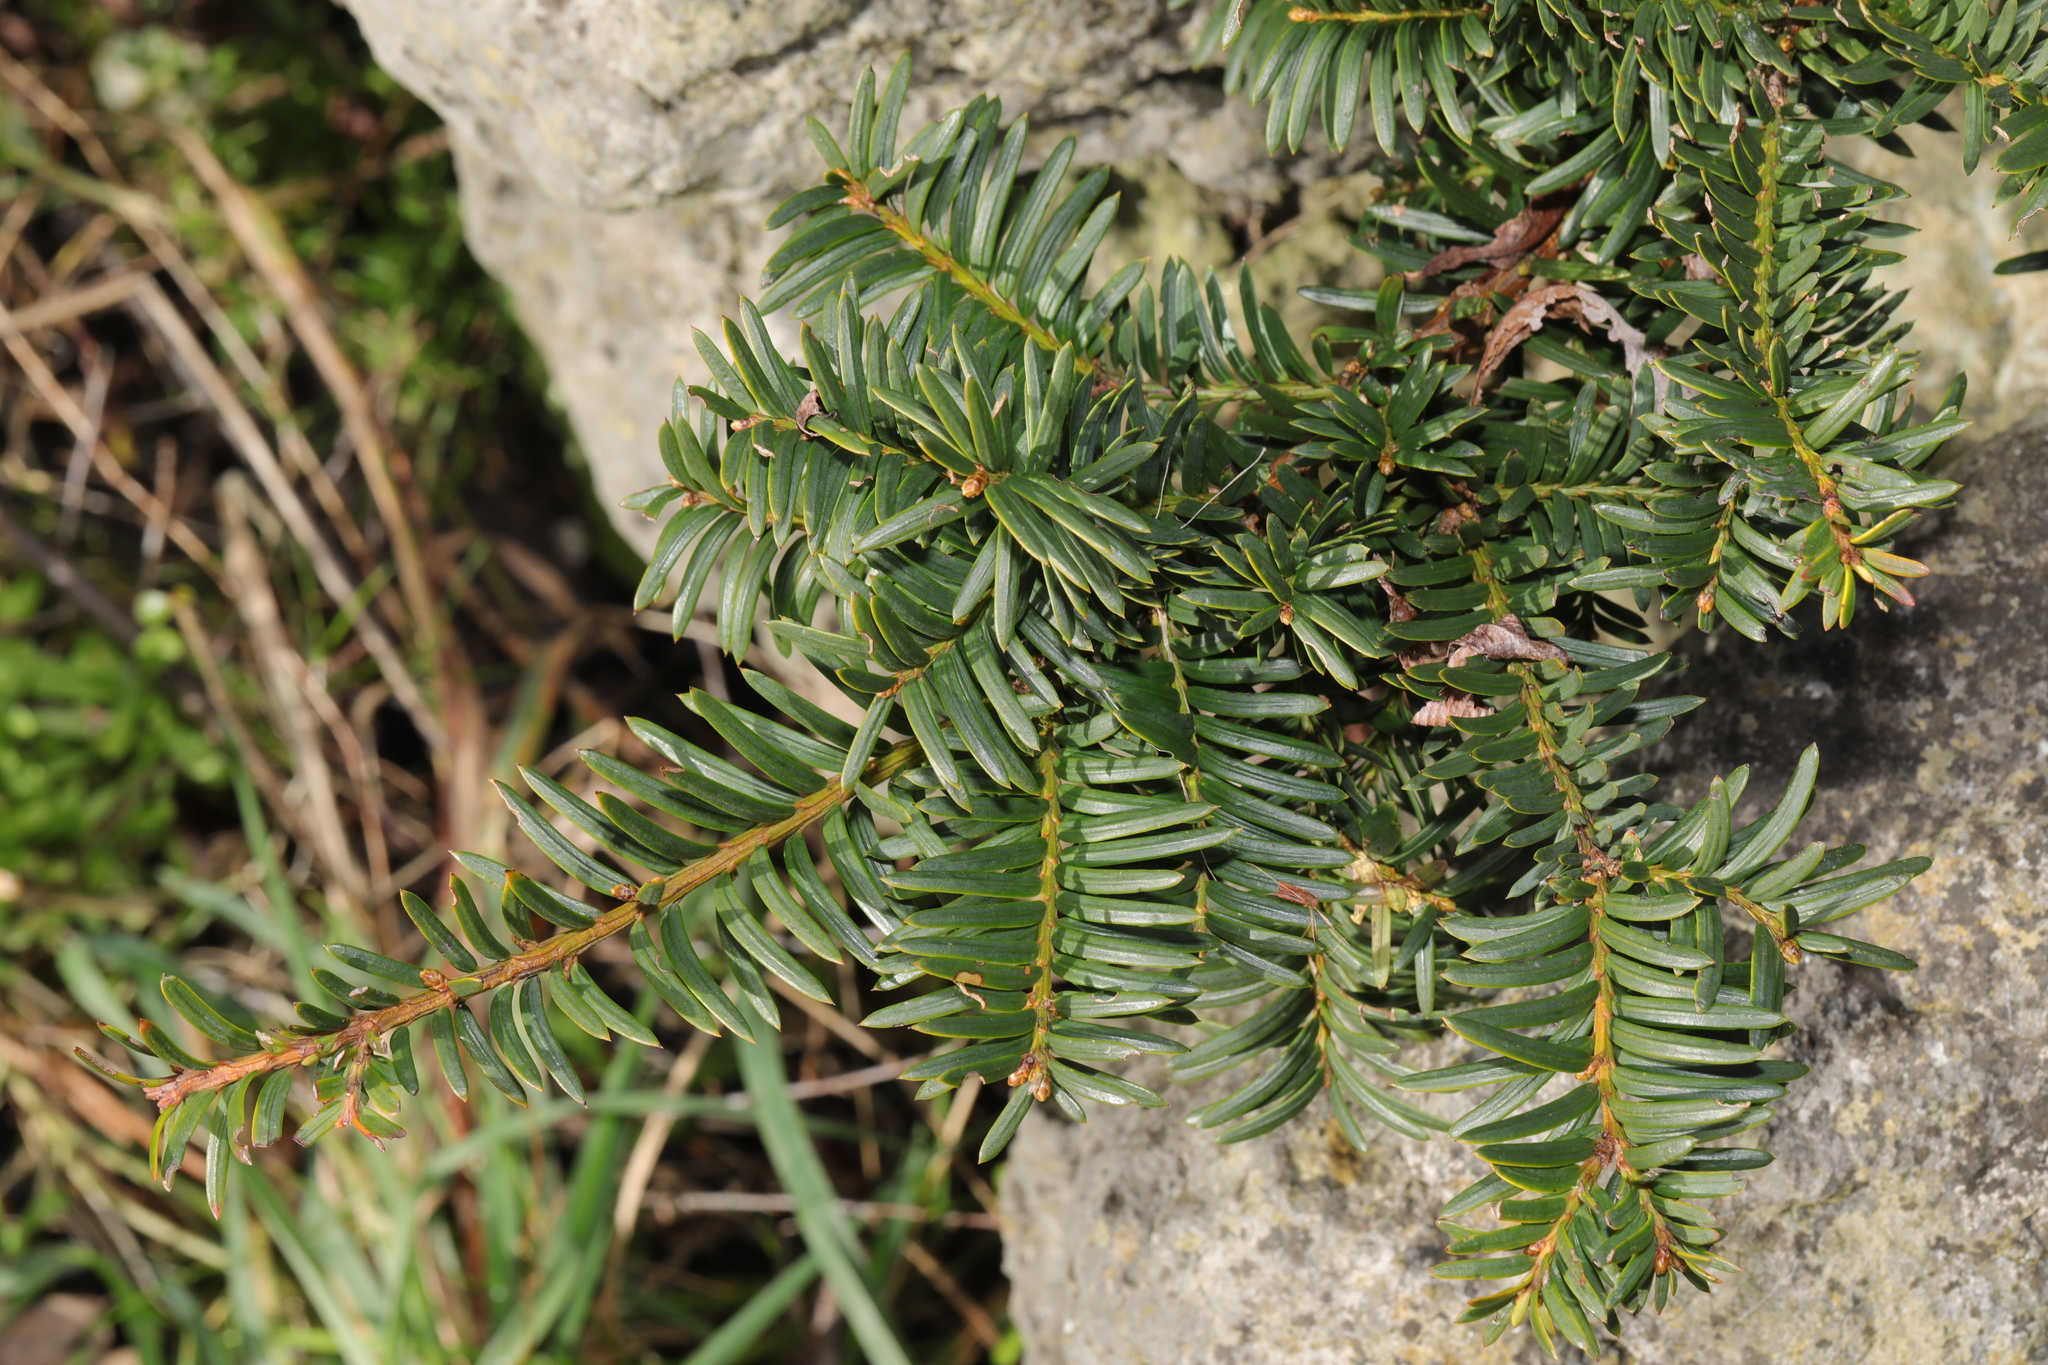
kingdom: Plantae
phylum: Tracheophyta
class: Pinopsida
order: Pinales
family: Taxaceae
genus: Taxus
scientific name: Taxus baccata
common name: Yew
